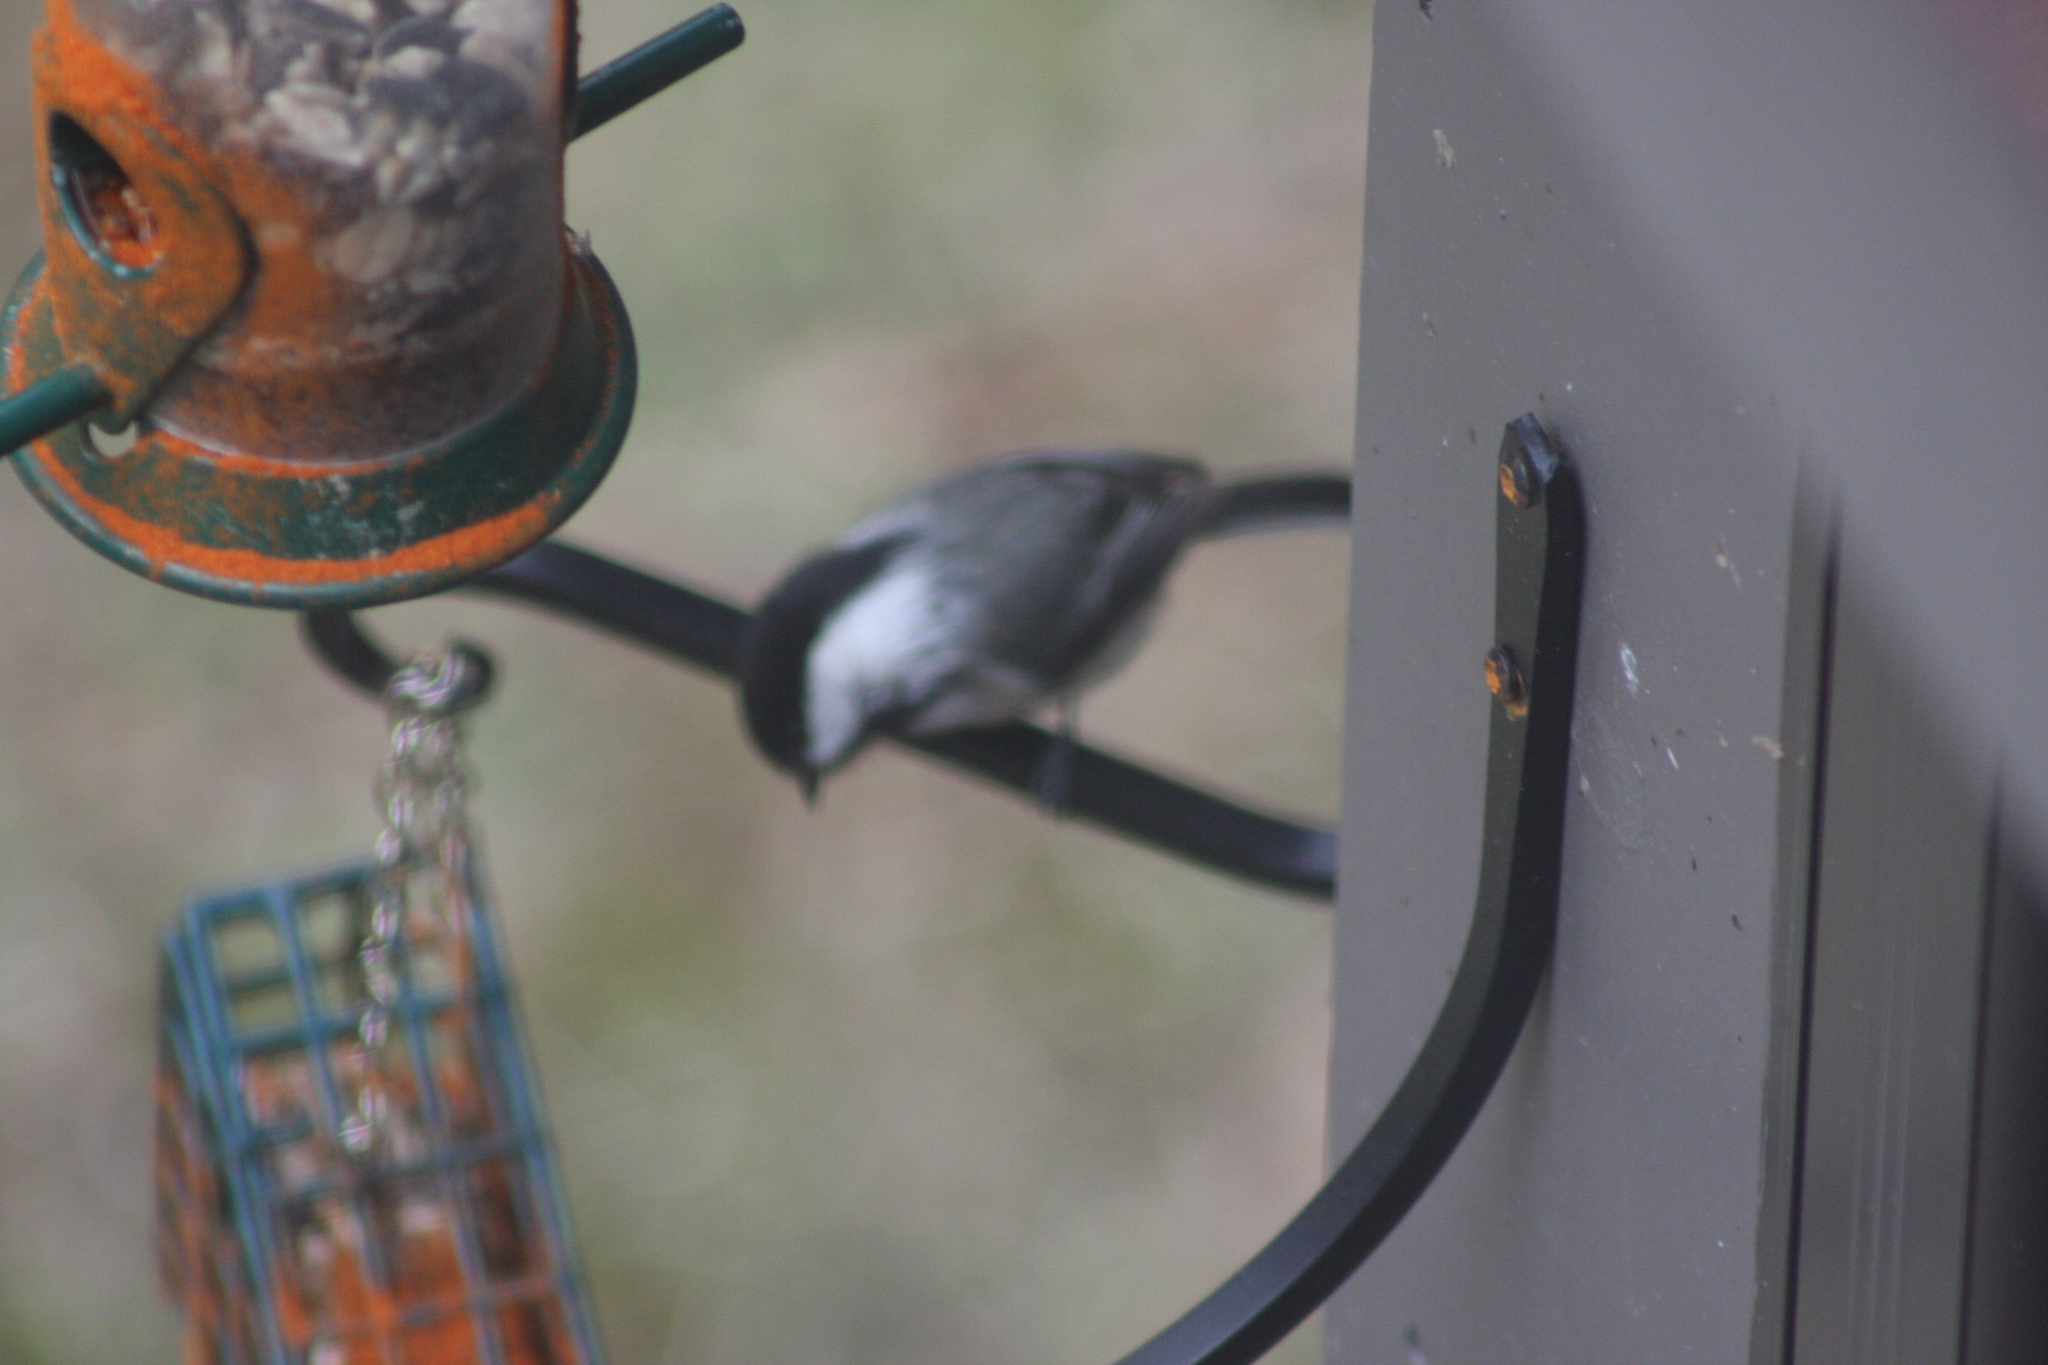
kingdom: Animalia
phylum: Chordata
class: Aves
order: Passeriformes
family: Paridae
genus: Poecile
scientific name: Poecile atricapillus
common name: Black-capped chickadee
